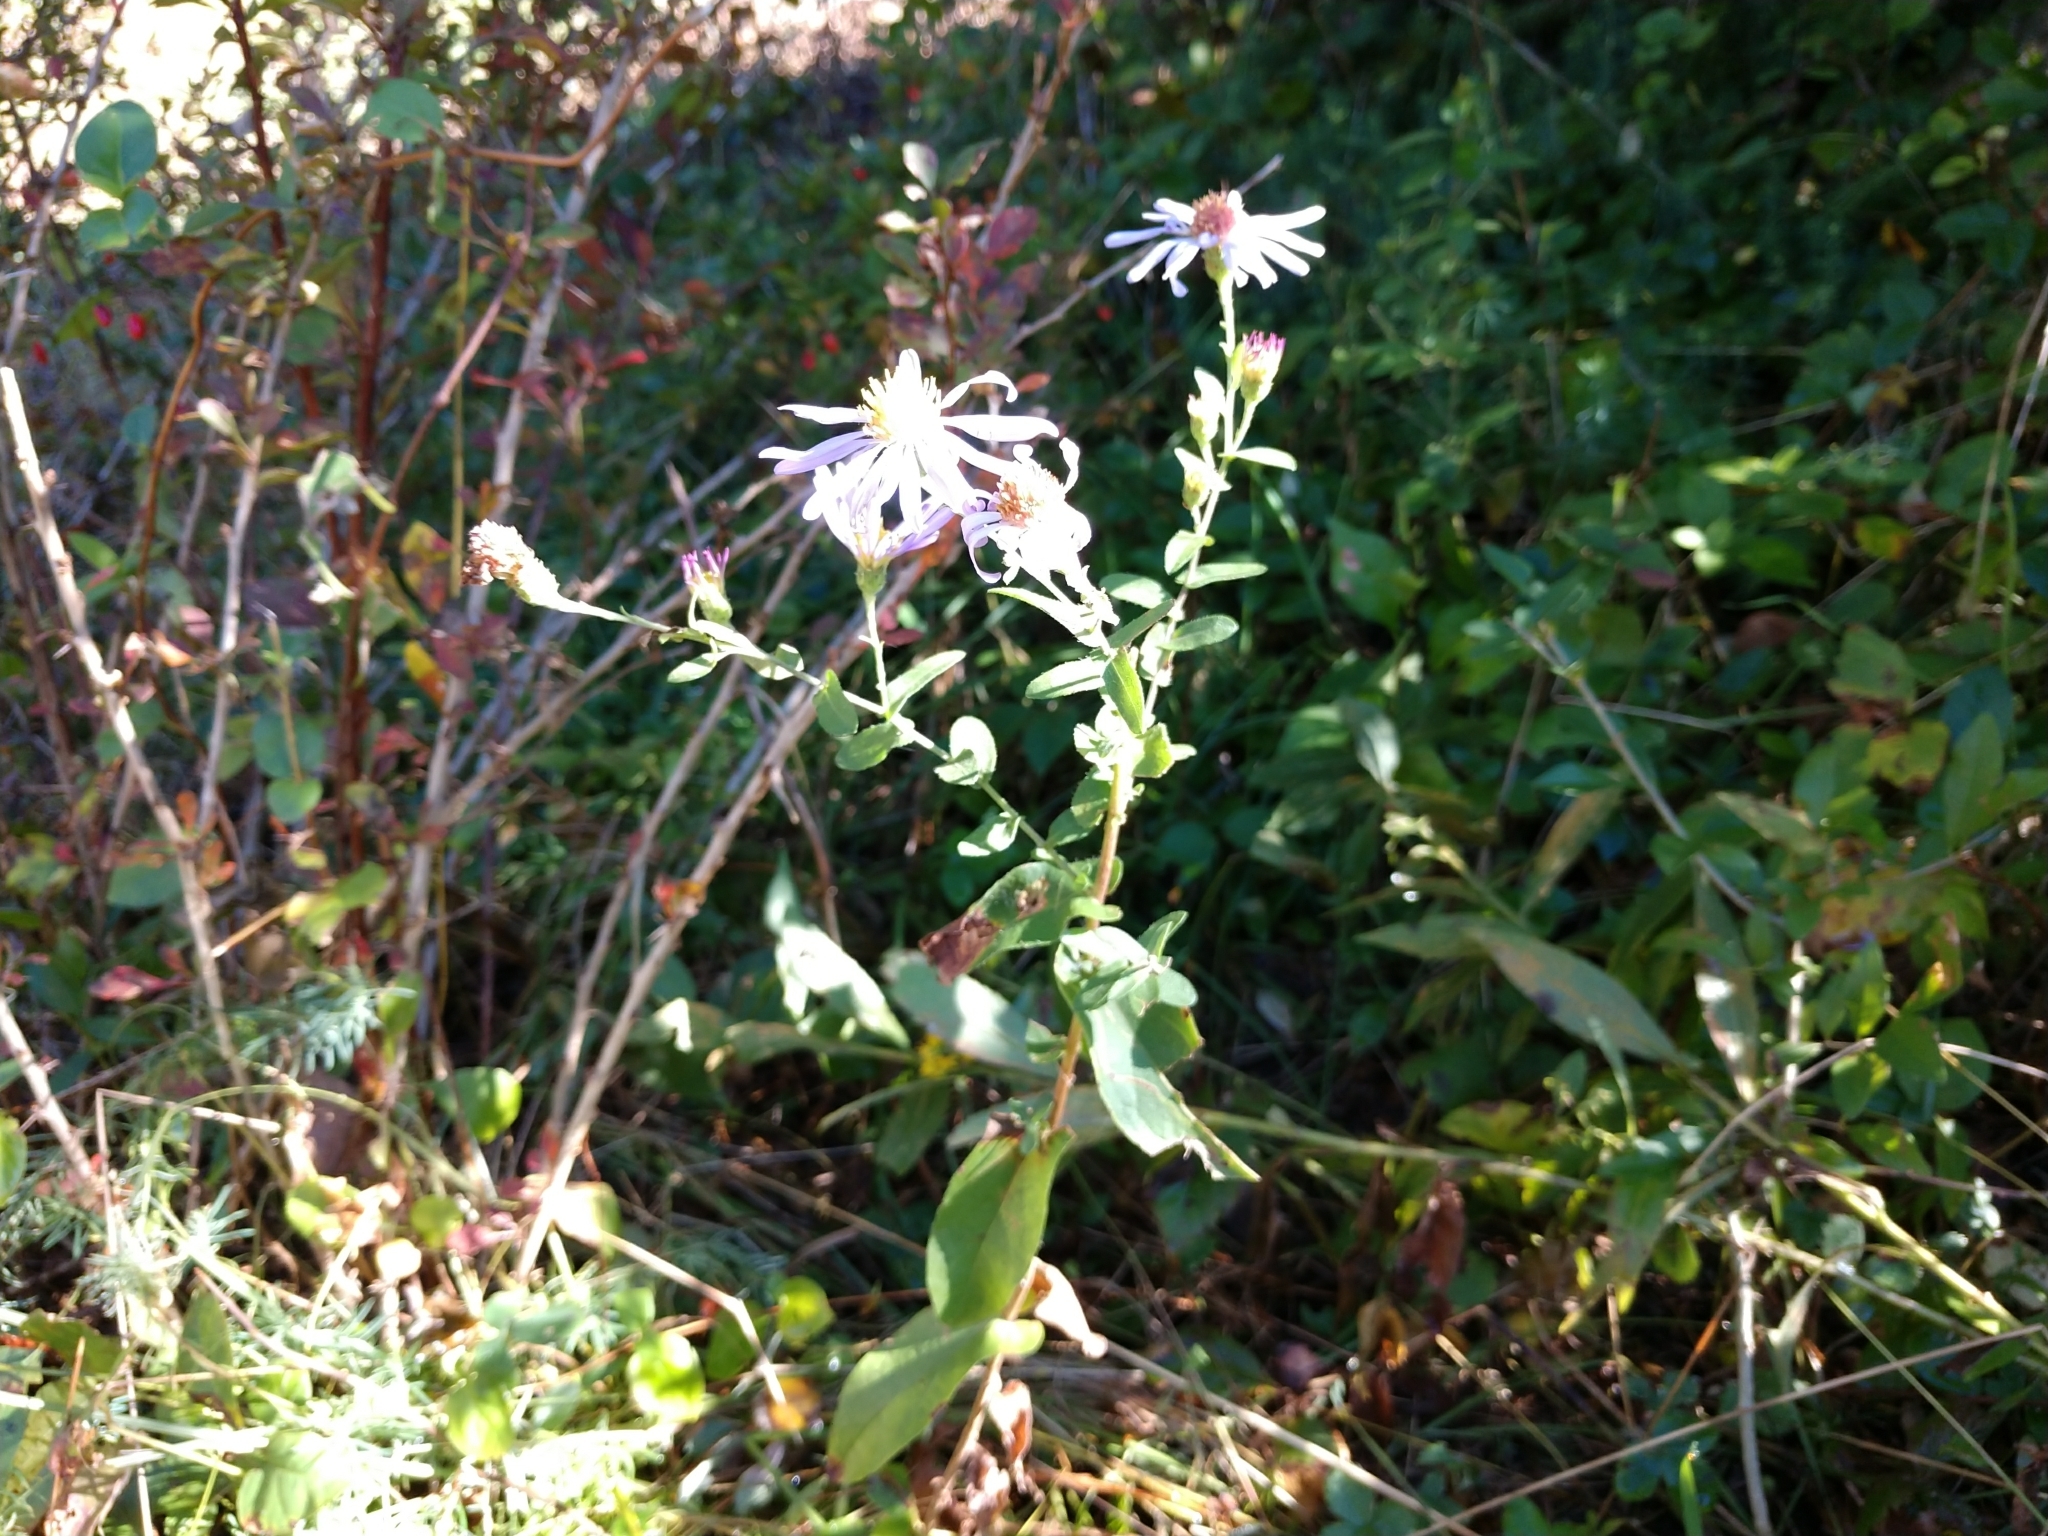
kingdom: Plantae
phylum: Tracheophyta
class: Magnoliopsida
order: Asterales
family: Asteraceae
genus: Symphyotrichum
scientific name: Symphyotrichum patens
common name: Late purple aster
